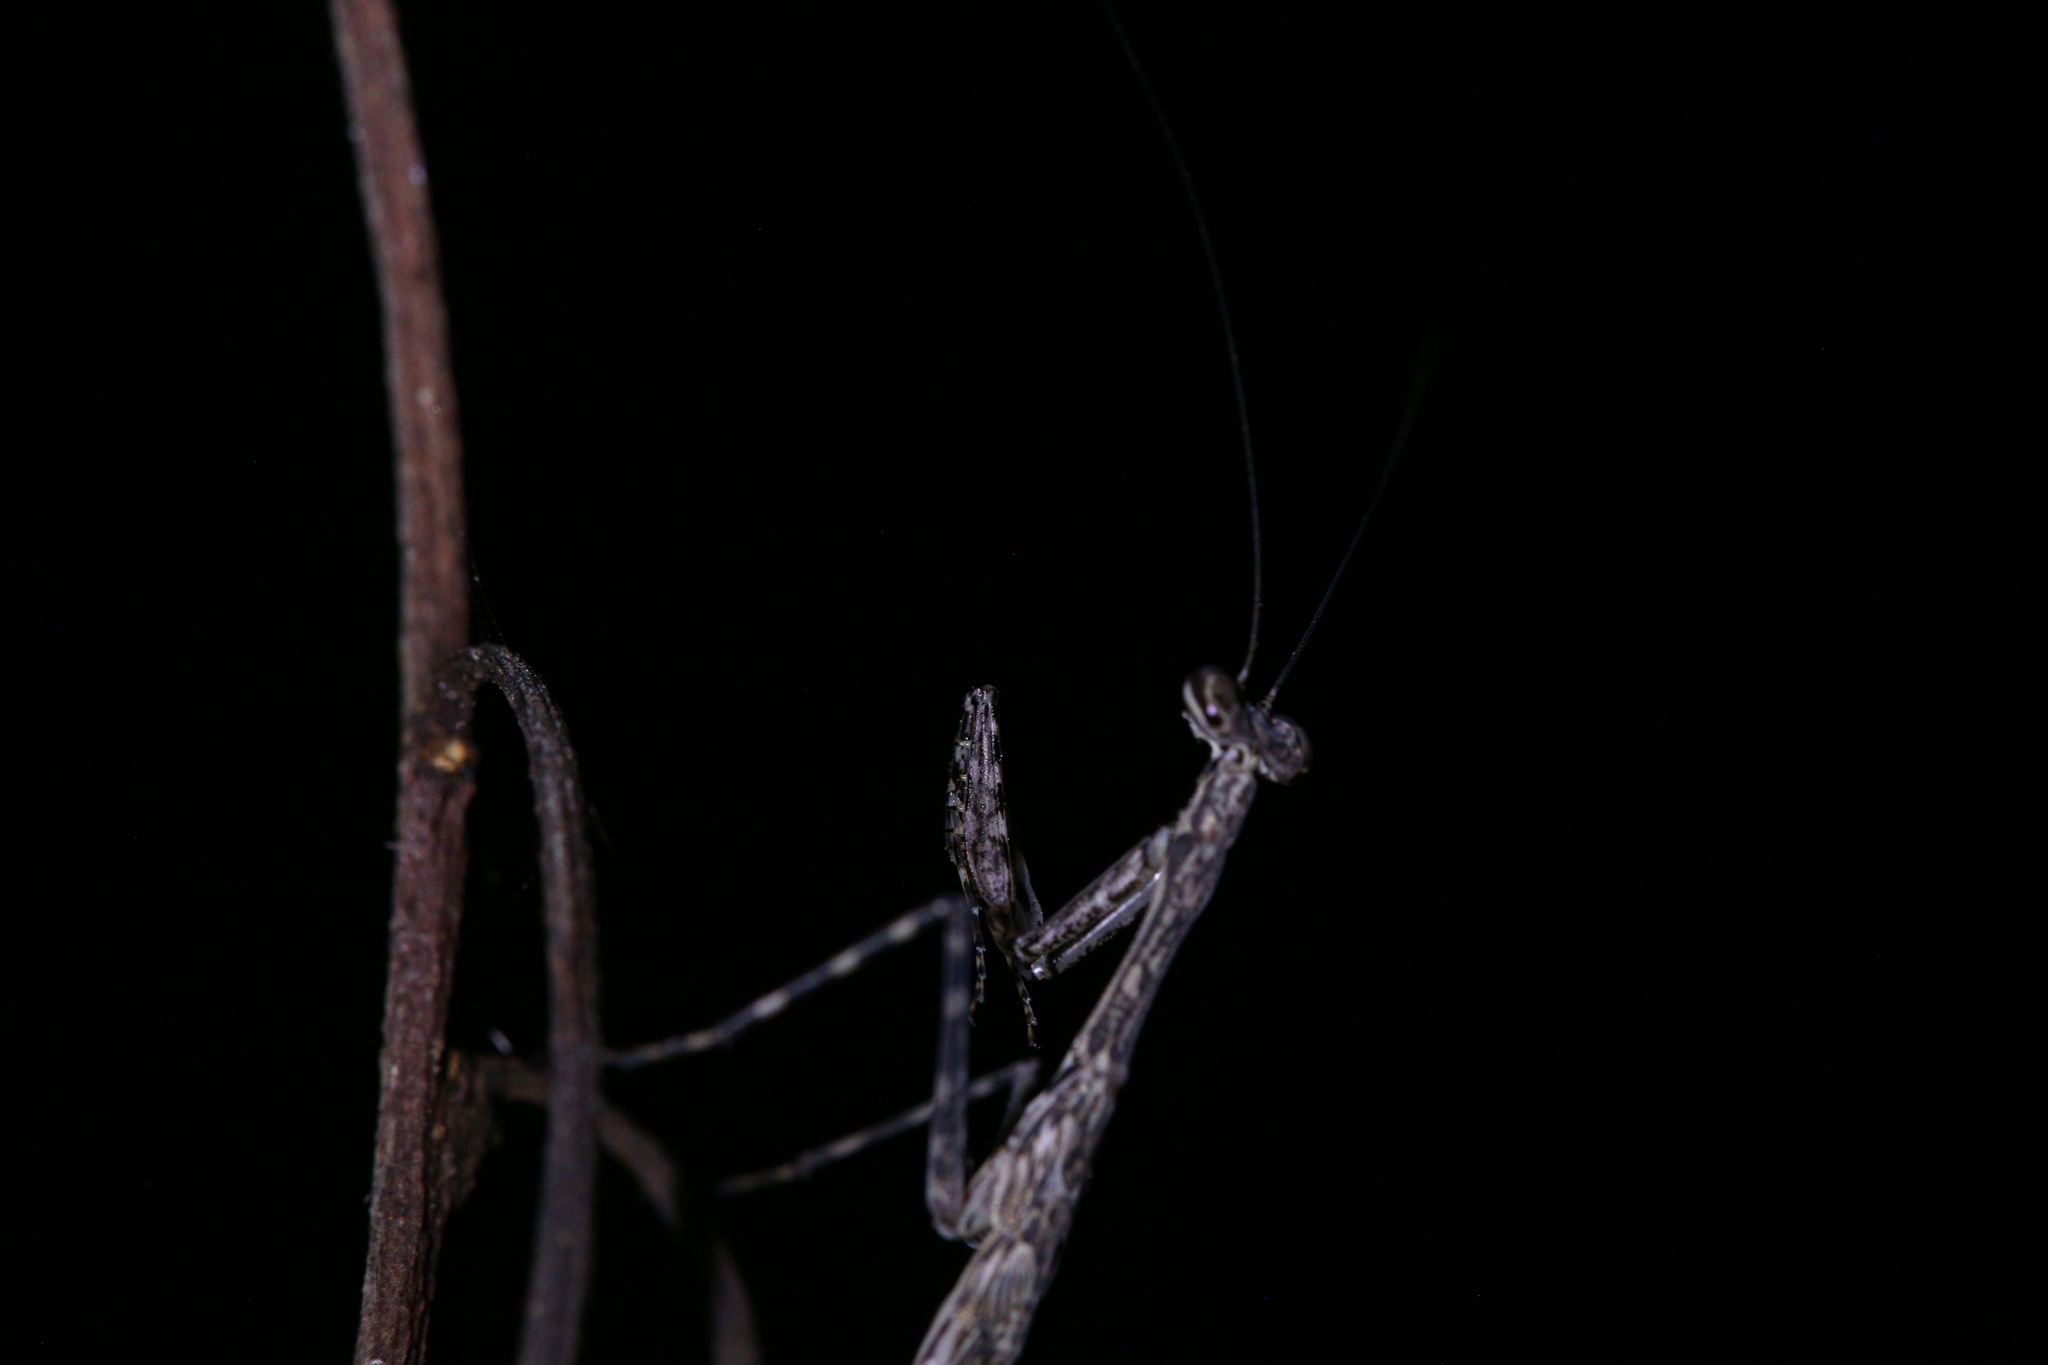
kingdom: Animalia
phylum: Arthropoda
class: Insecta
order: Mantodea
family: Nanomantidae
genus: Ciulfina
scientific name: Ciulfina rentzi
